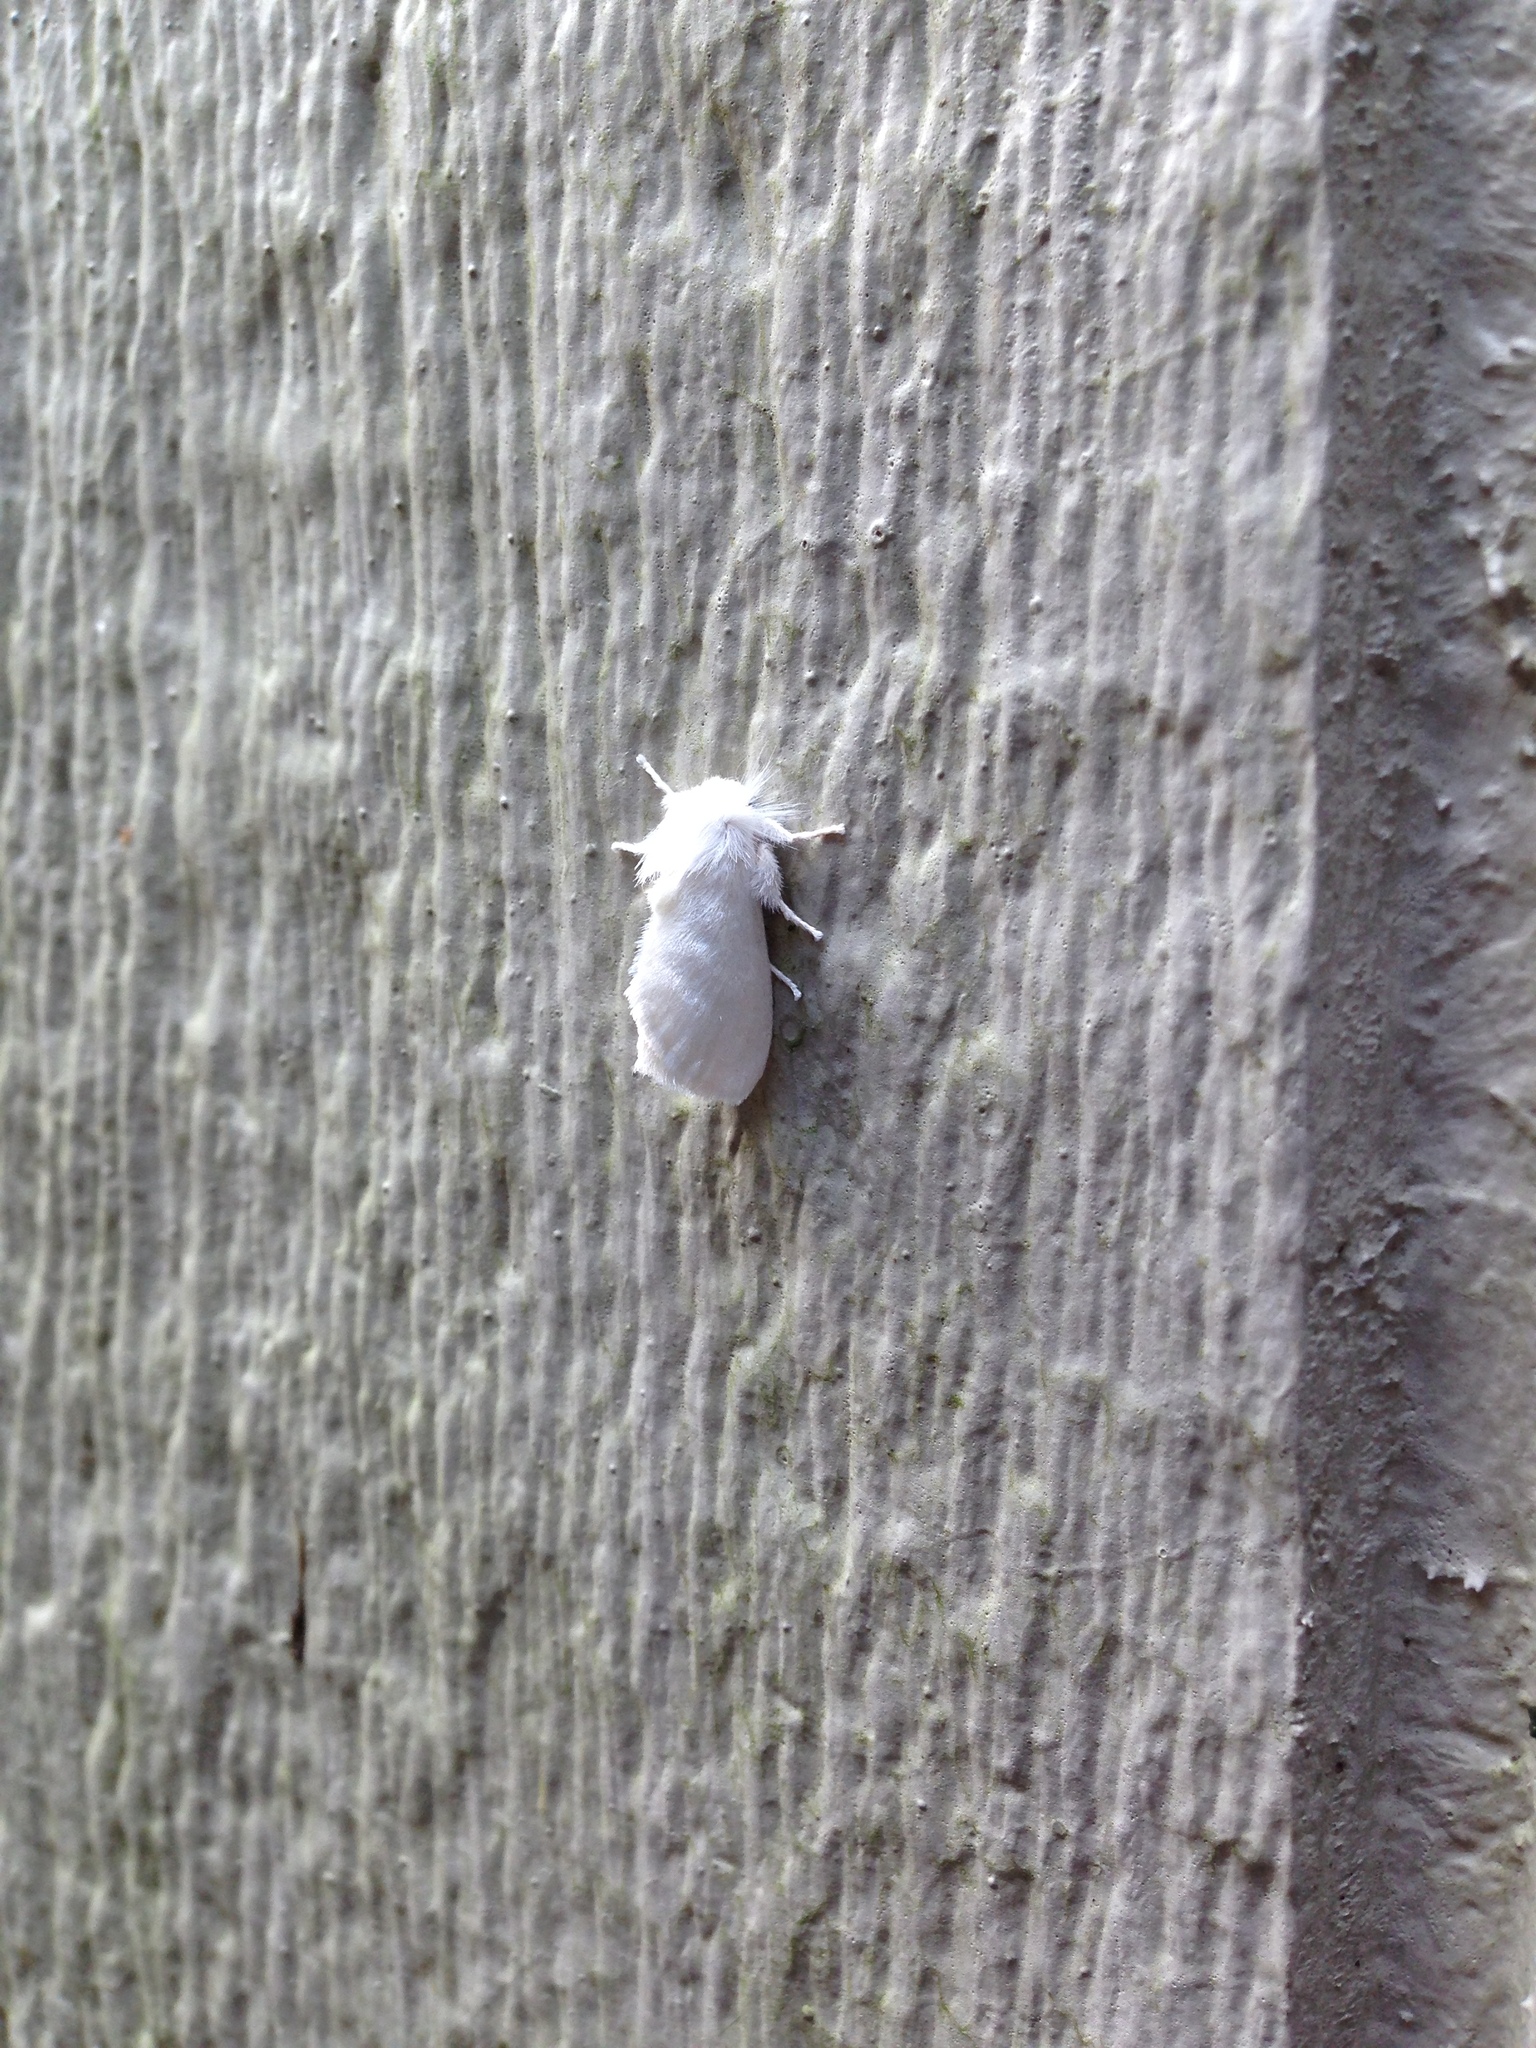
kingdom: Animalia
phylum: Arthropoda
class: Insecta
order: Lepidoptera
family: Megalopygidae
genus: Norape
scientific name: Norape cretata
